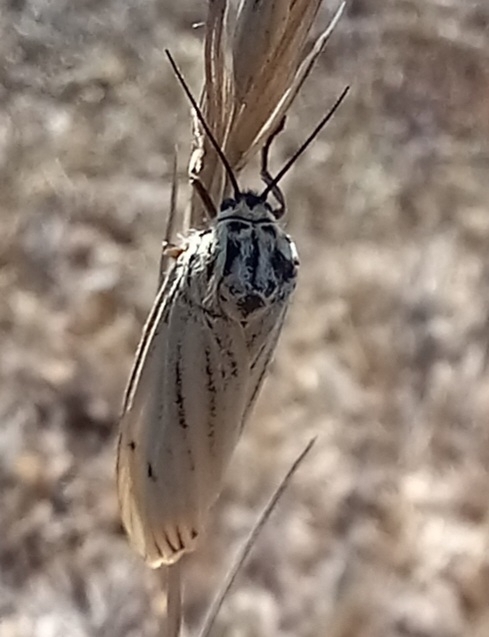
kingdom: Animalia
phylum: Arthropoda
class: Insecta
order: Lepidoptera
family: Erebidae
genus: Coscinia
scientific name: Coscinia Spiris striata
